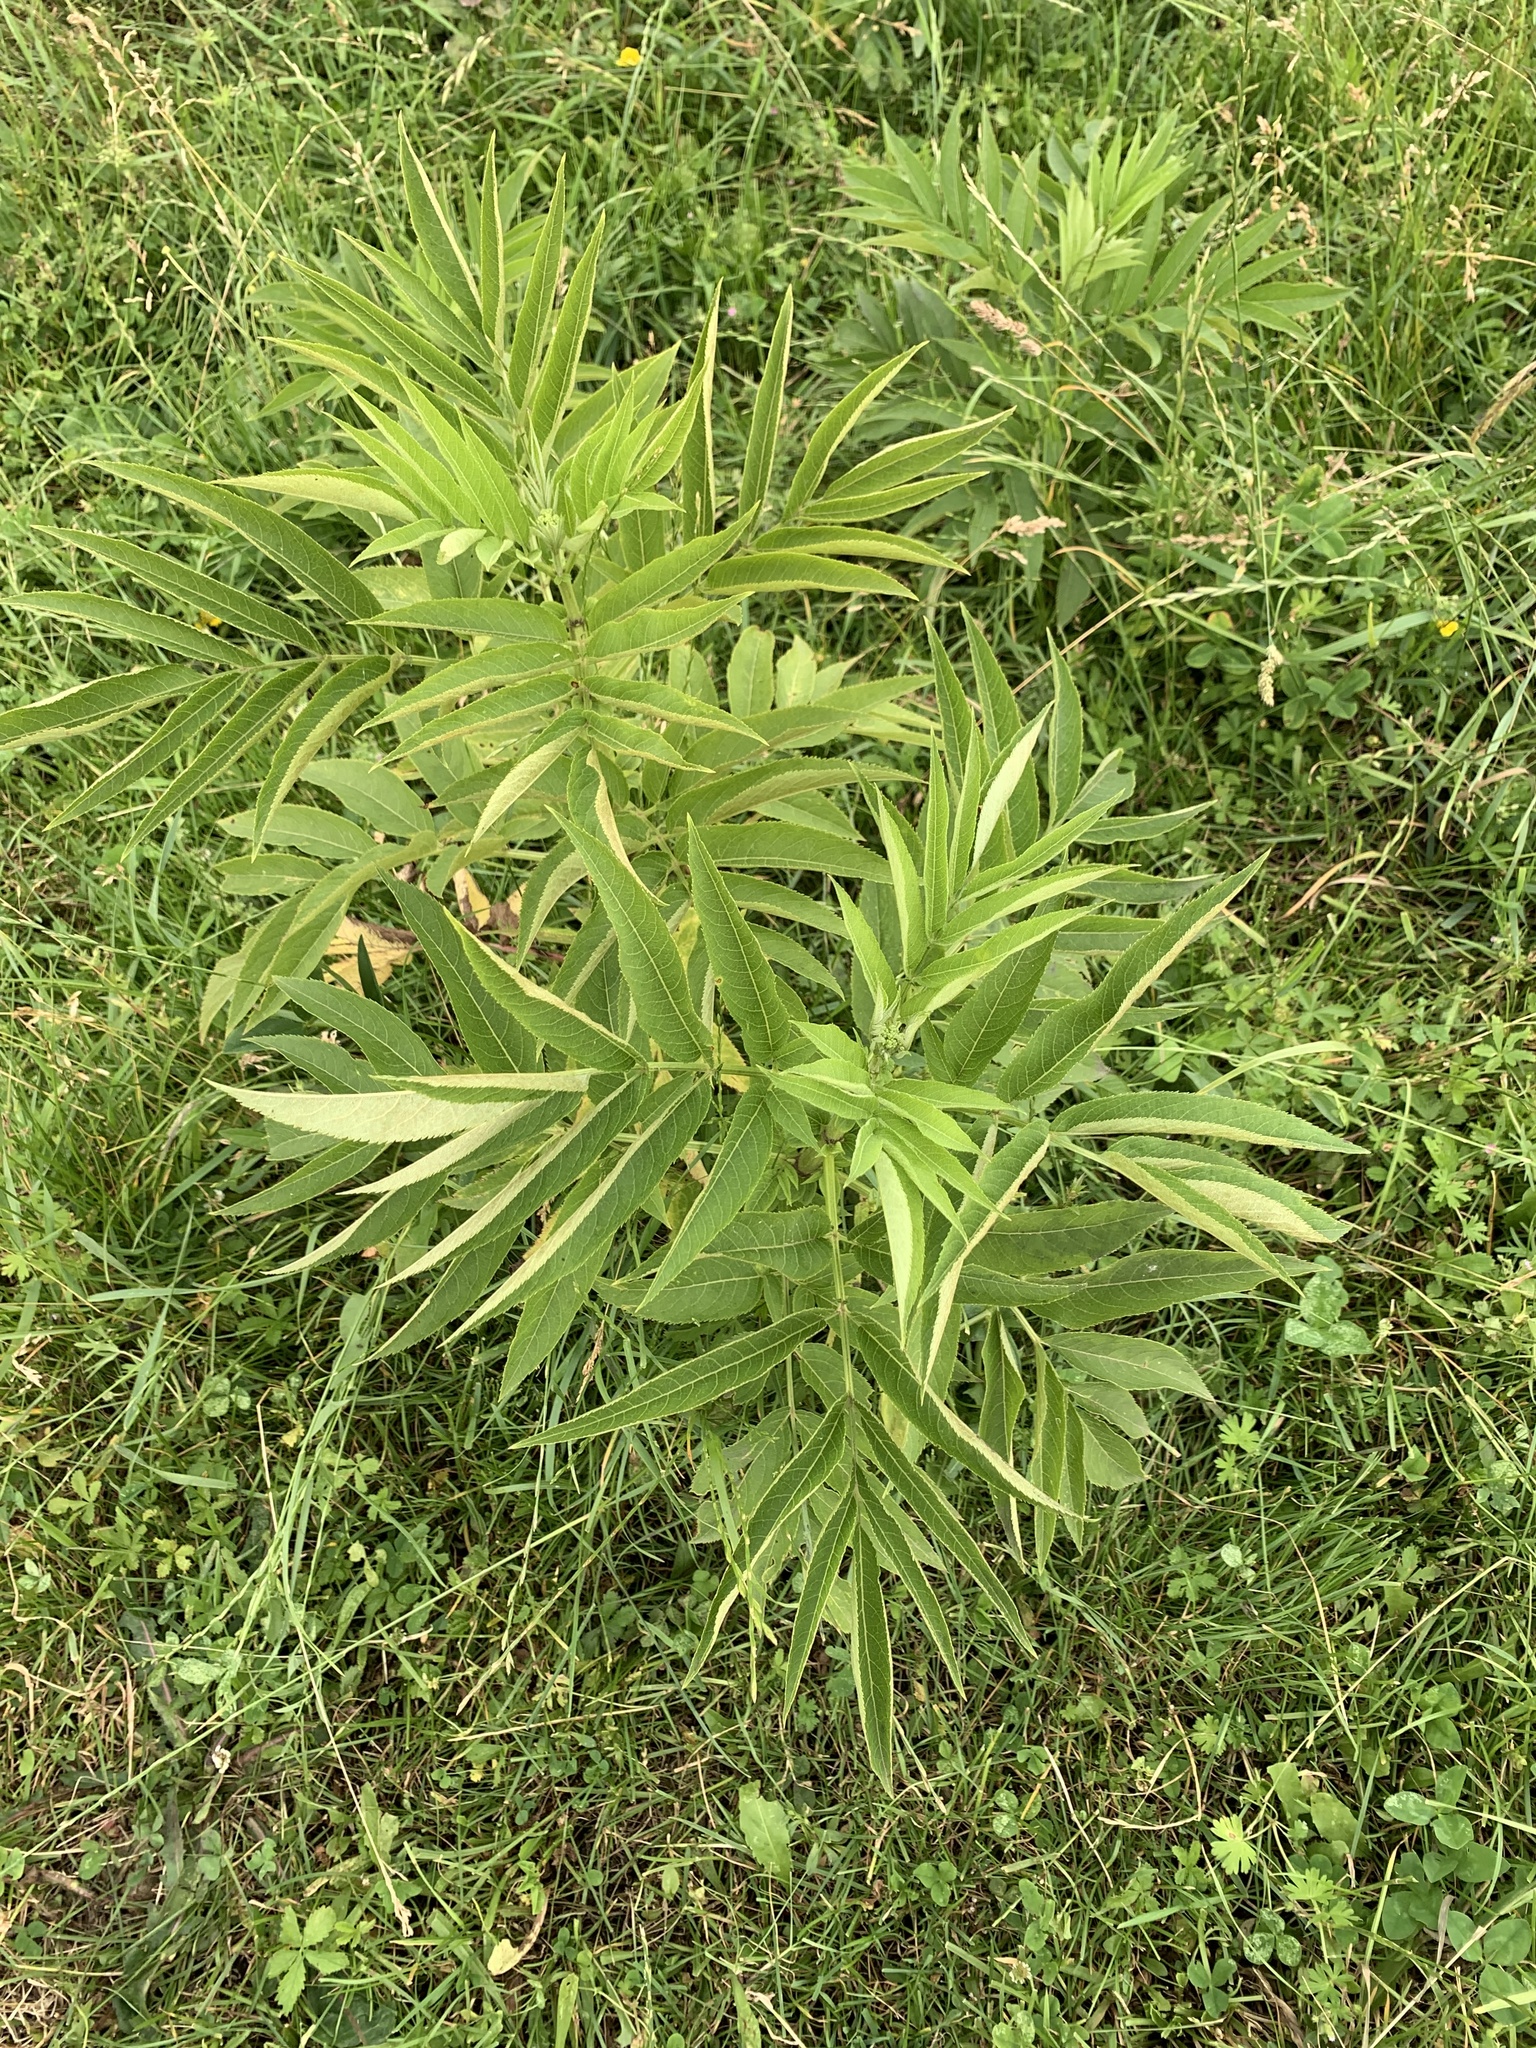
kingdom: Plantae
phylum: Tracheophyta
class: Magnoliopsida
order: Dipsacales
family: Viburnaceae
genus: Sambucus
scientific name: Sambucus ebulus
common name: Dwarf elder
